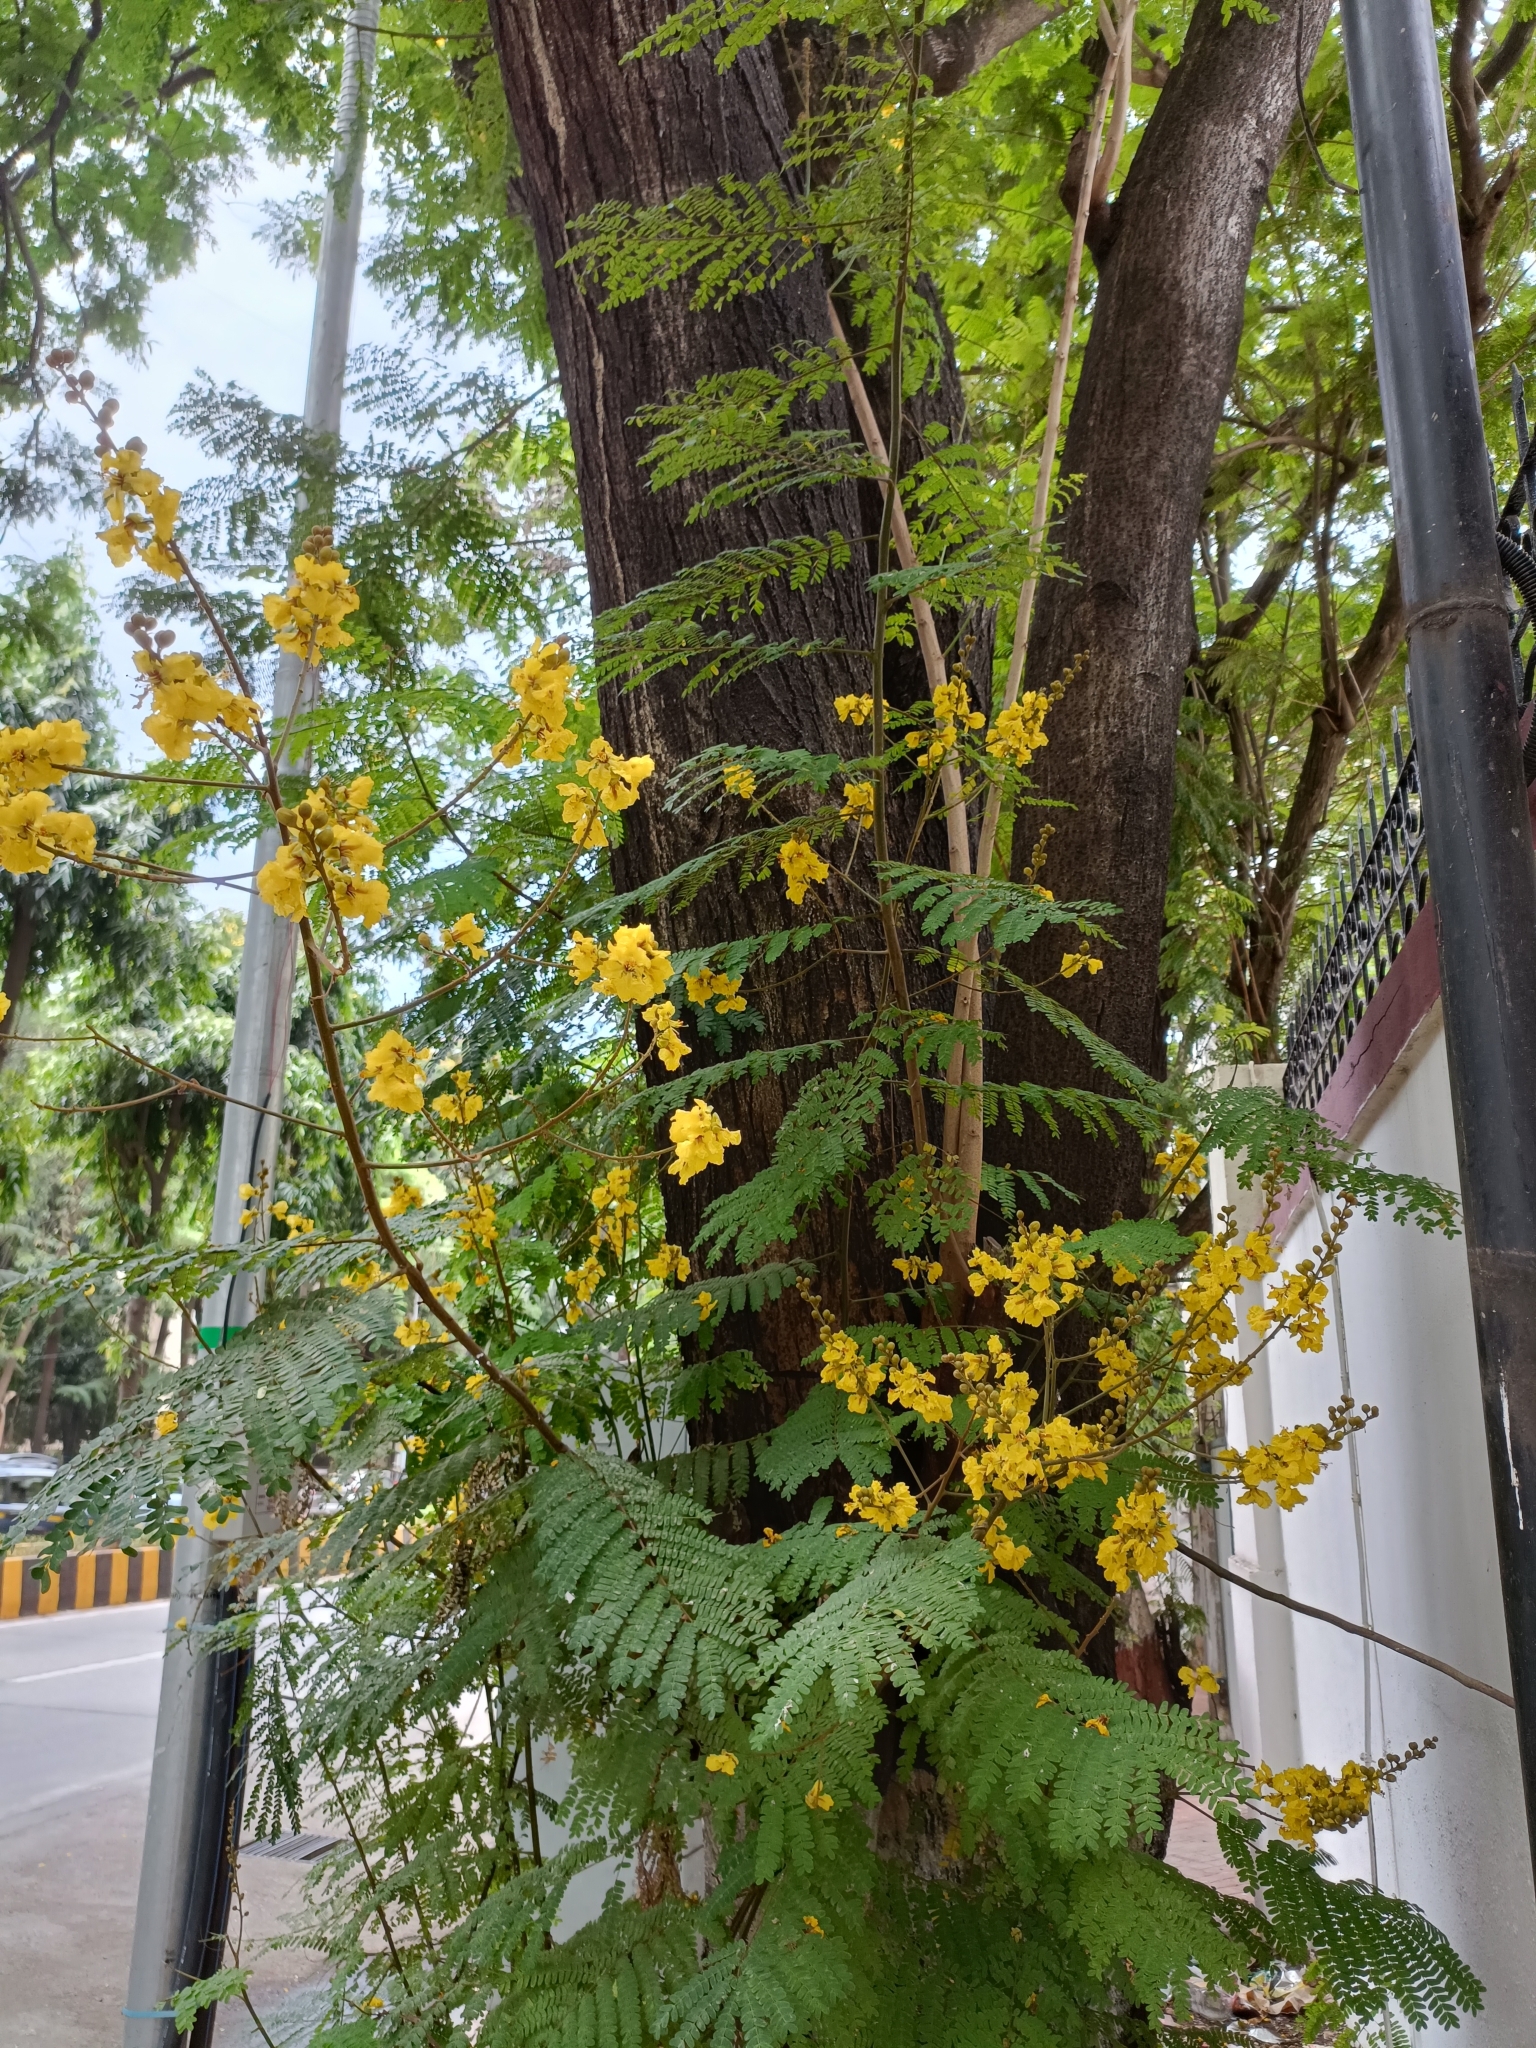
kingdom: Plantae
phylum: Tracheophyta
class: Magnoliopsida
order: Fabales
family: Fabaceae
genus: Peltophorum
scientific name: Peltophorum pterocarpum
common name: Yellow flame
